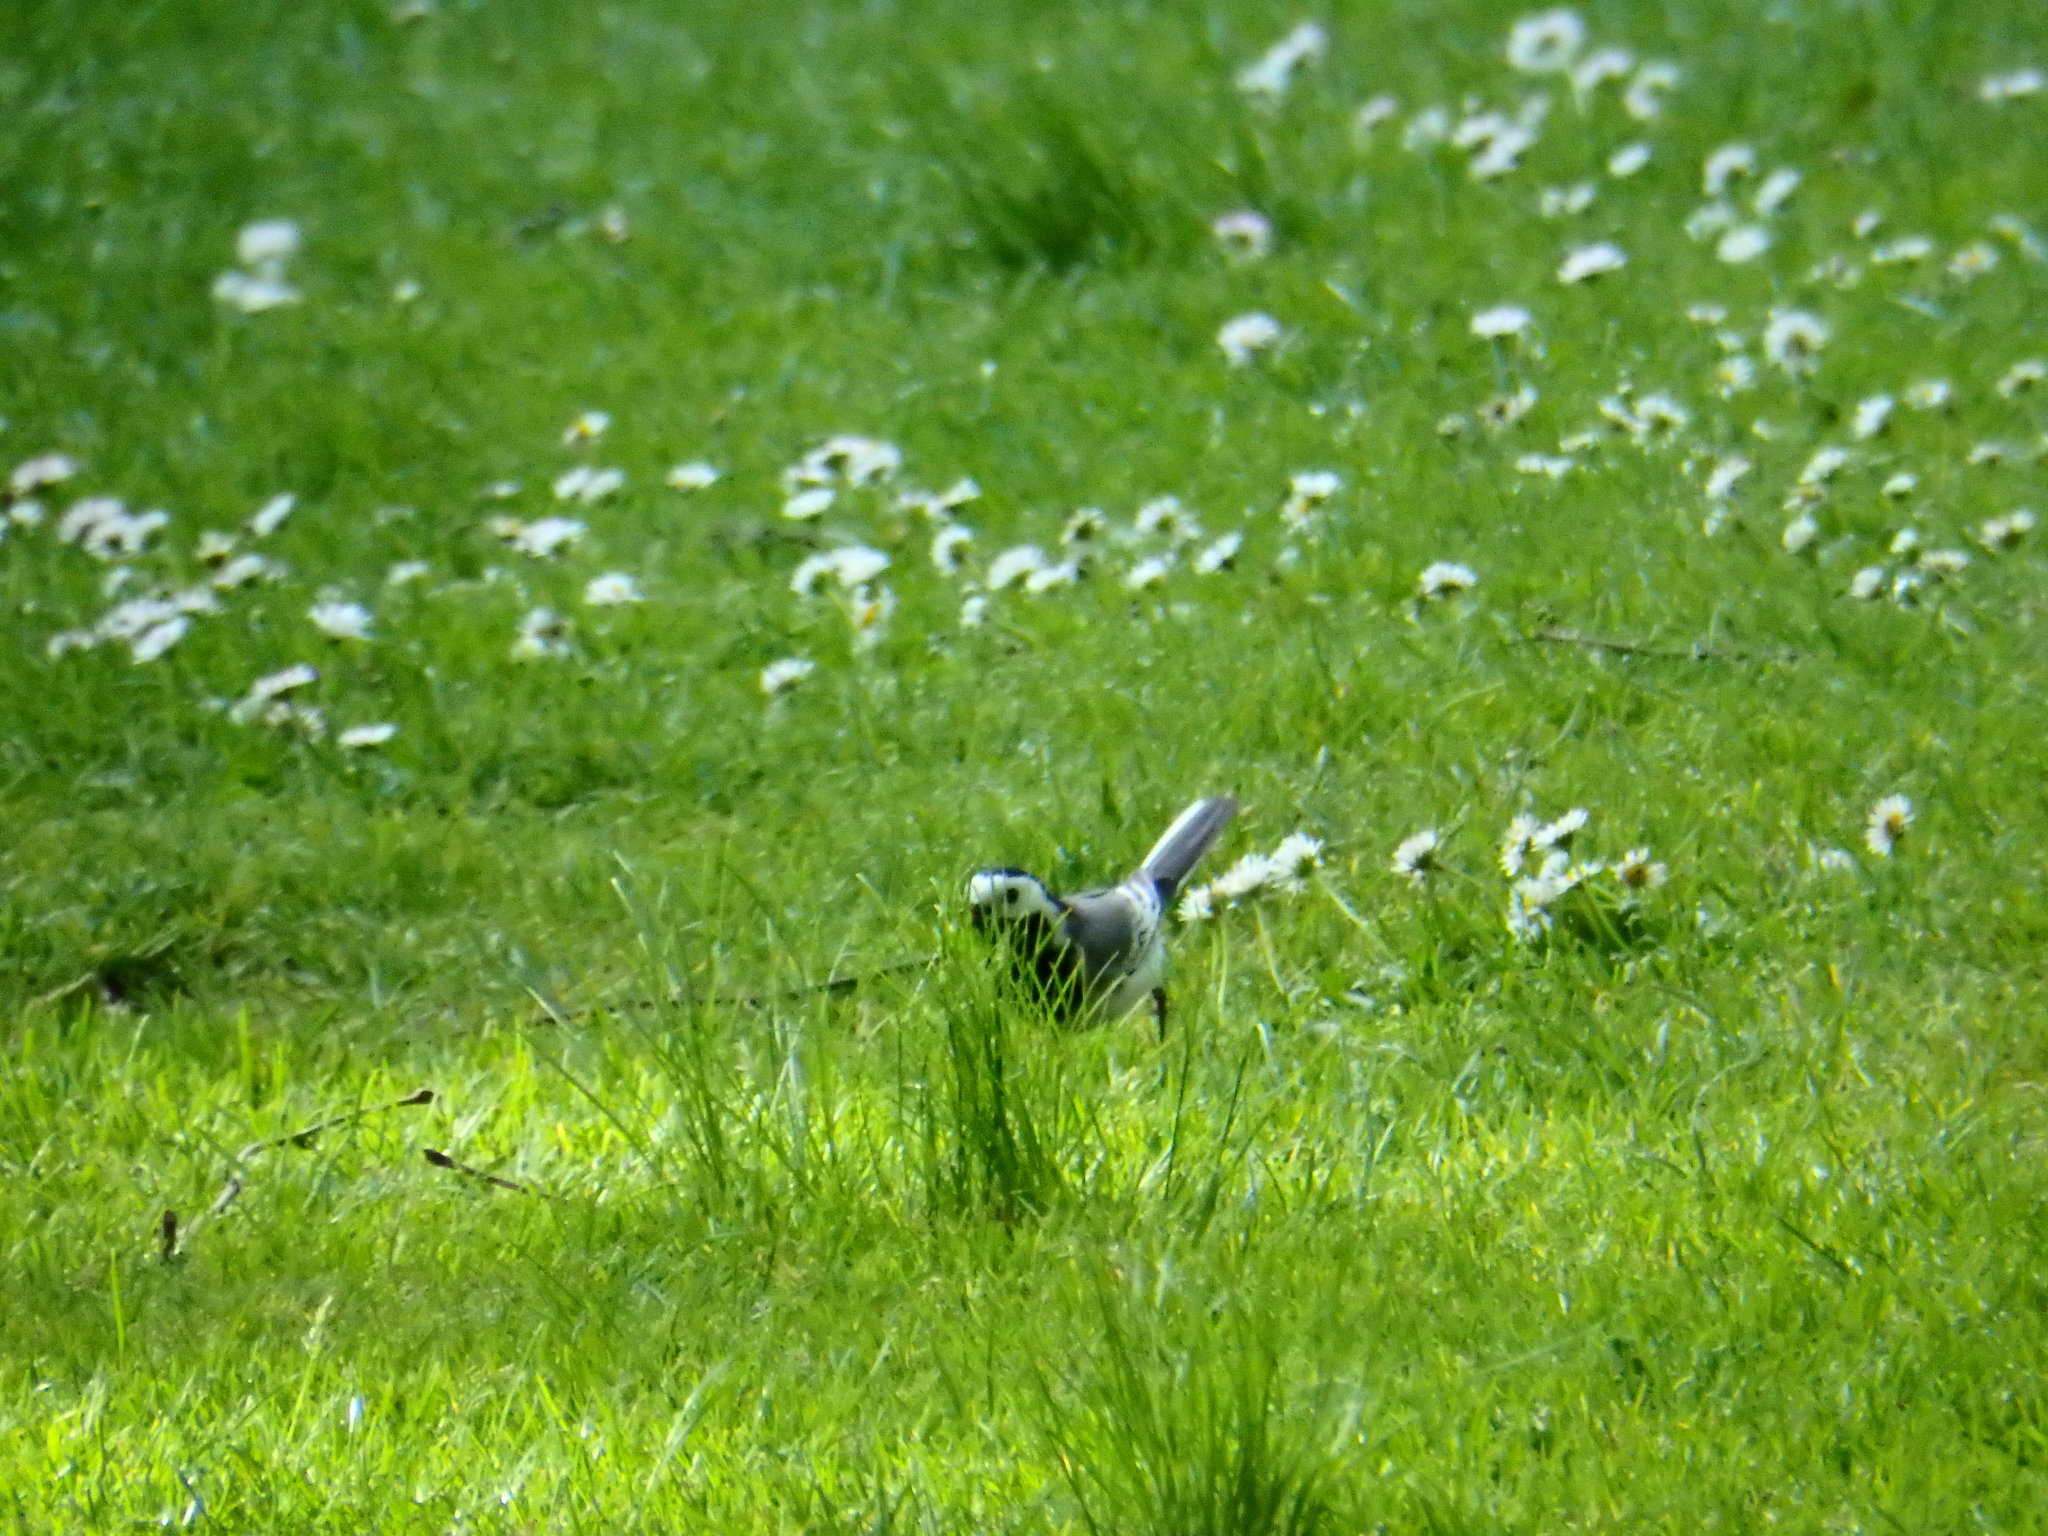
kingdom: Animalia
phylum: Chordata
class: Aves
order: Passeriformes
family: Motacillidae
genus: Motacilla
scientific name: Motacilla alba
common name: White wagtail
